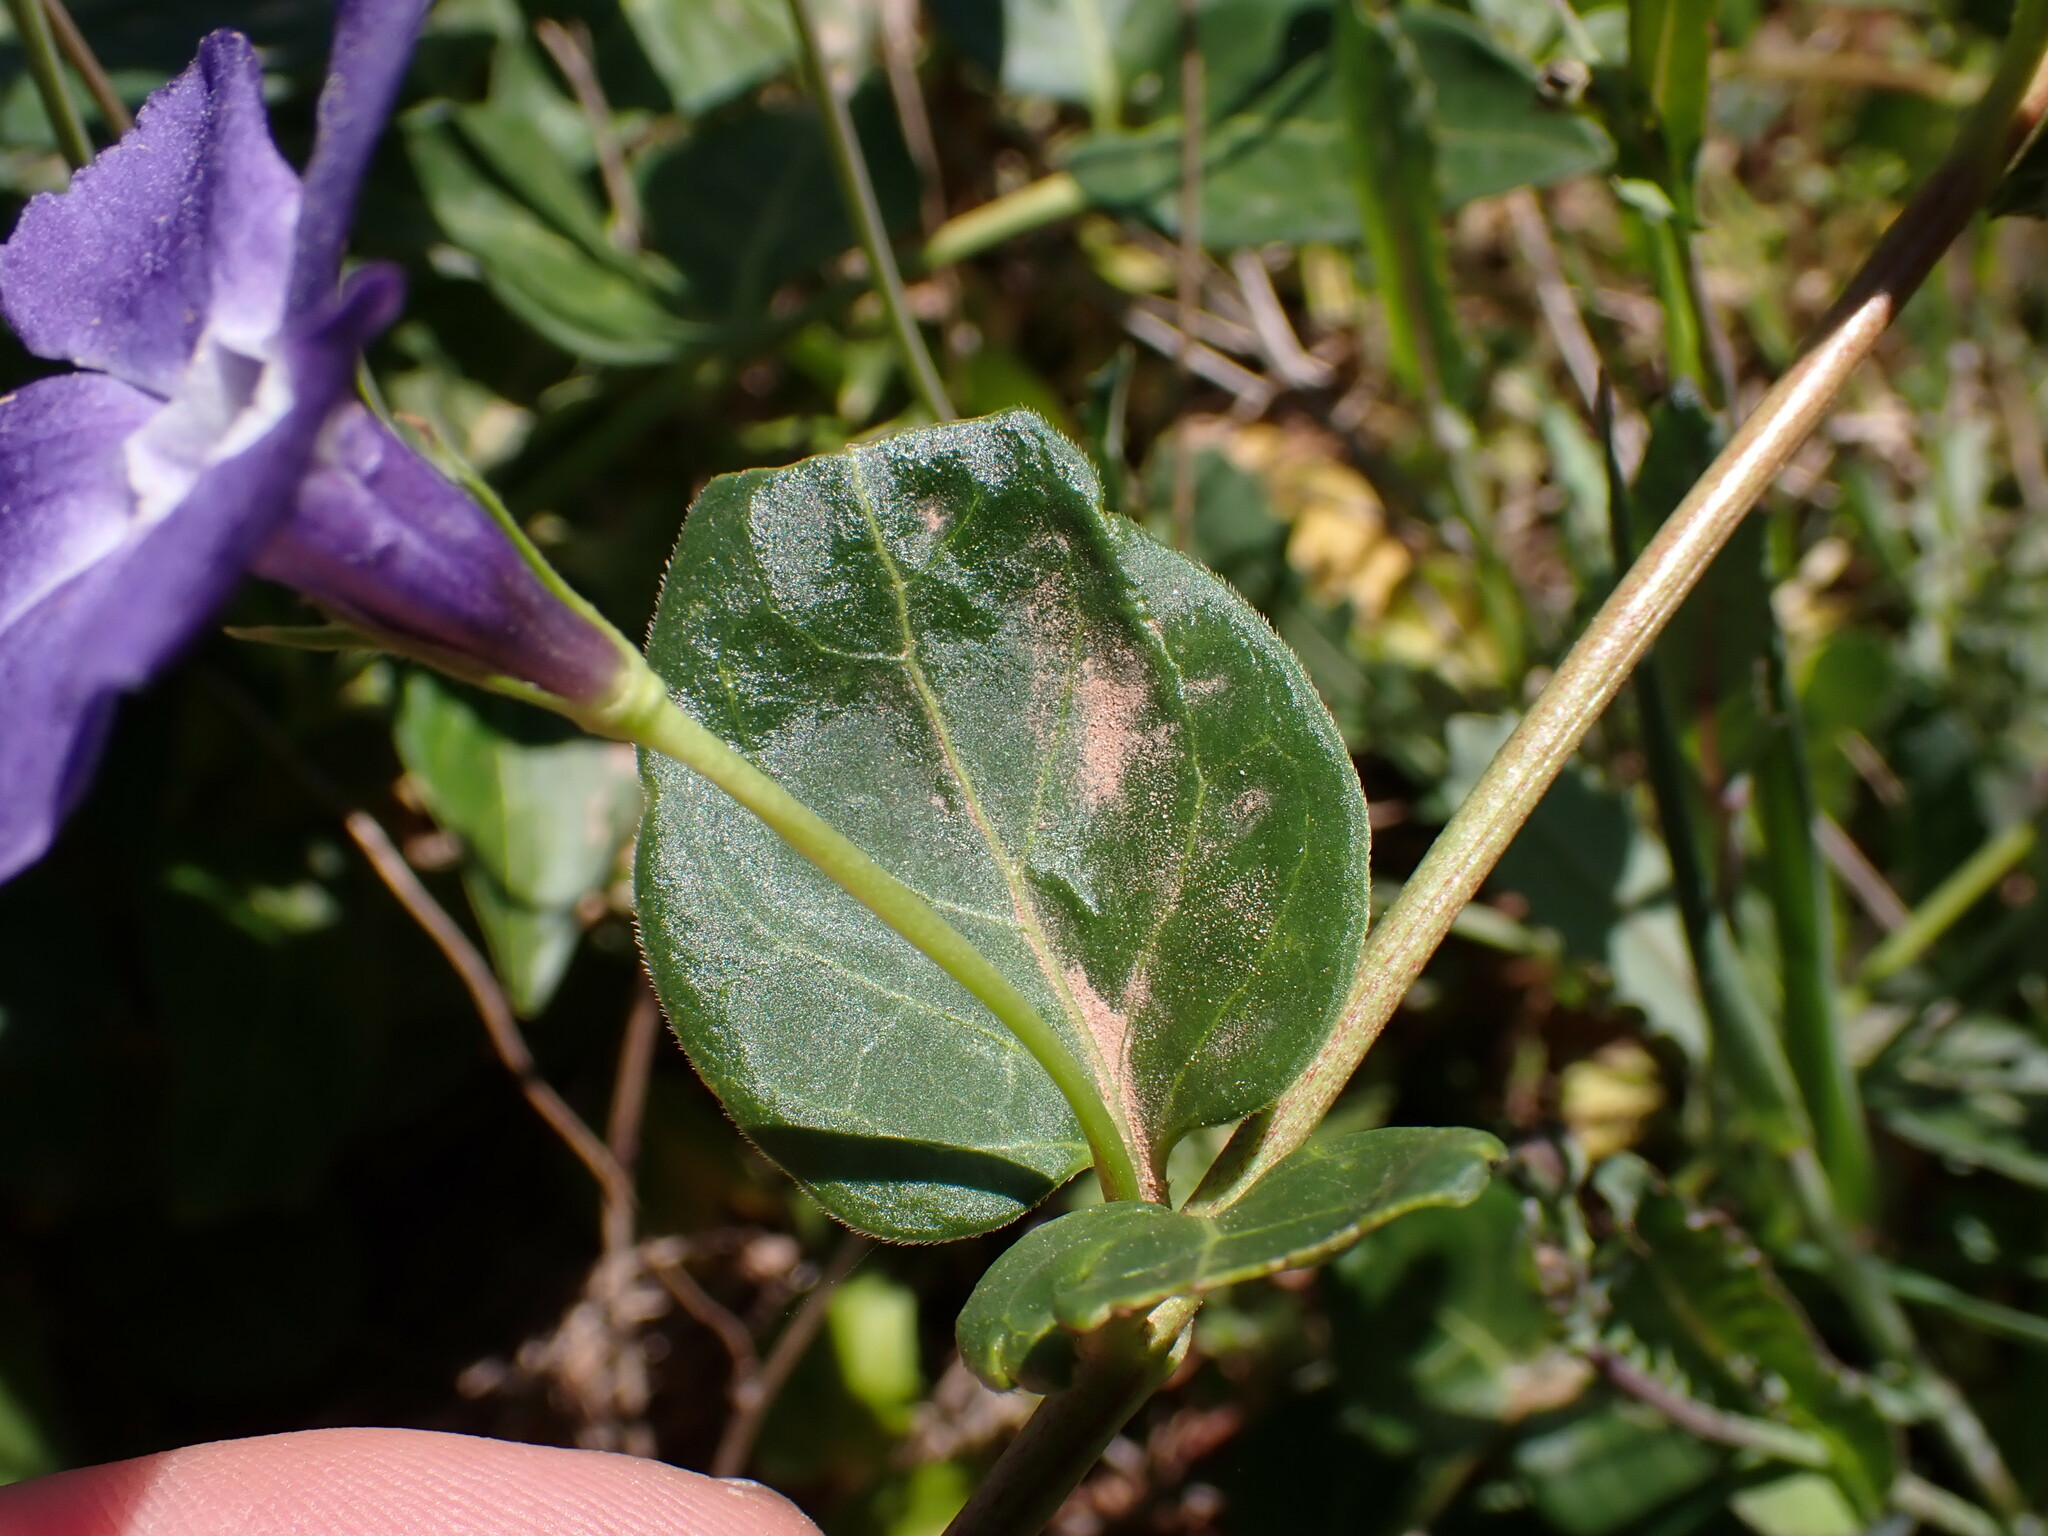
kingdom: Plantae
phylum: Tracheophyta
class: Magnoliopsida
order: Gentianales
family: Apocynaceae
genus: Vinca
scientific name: Vinca major
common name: Greater periwinkle
